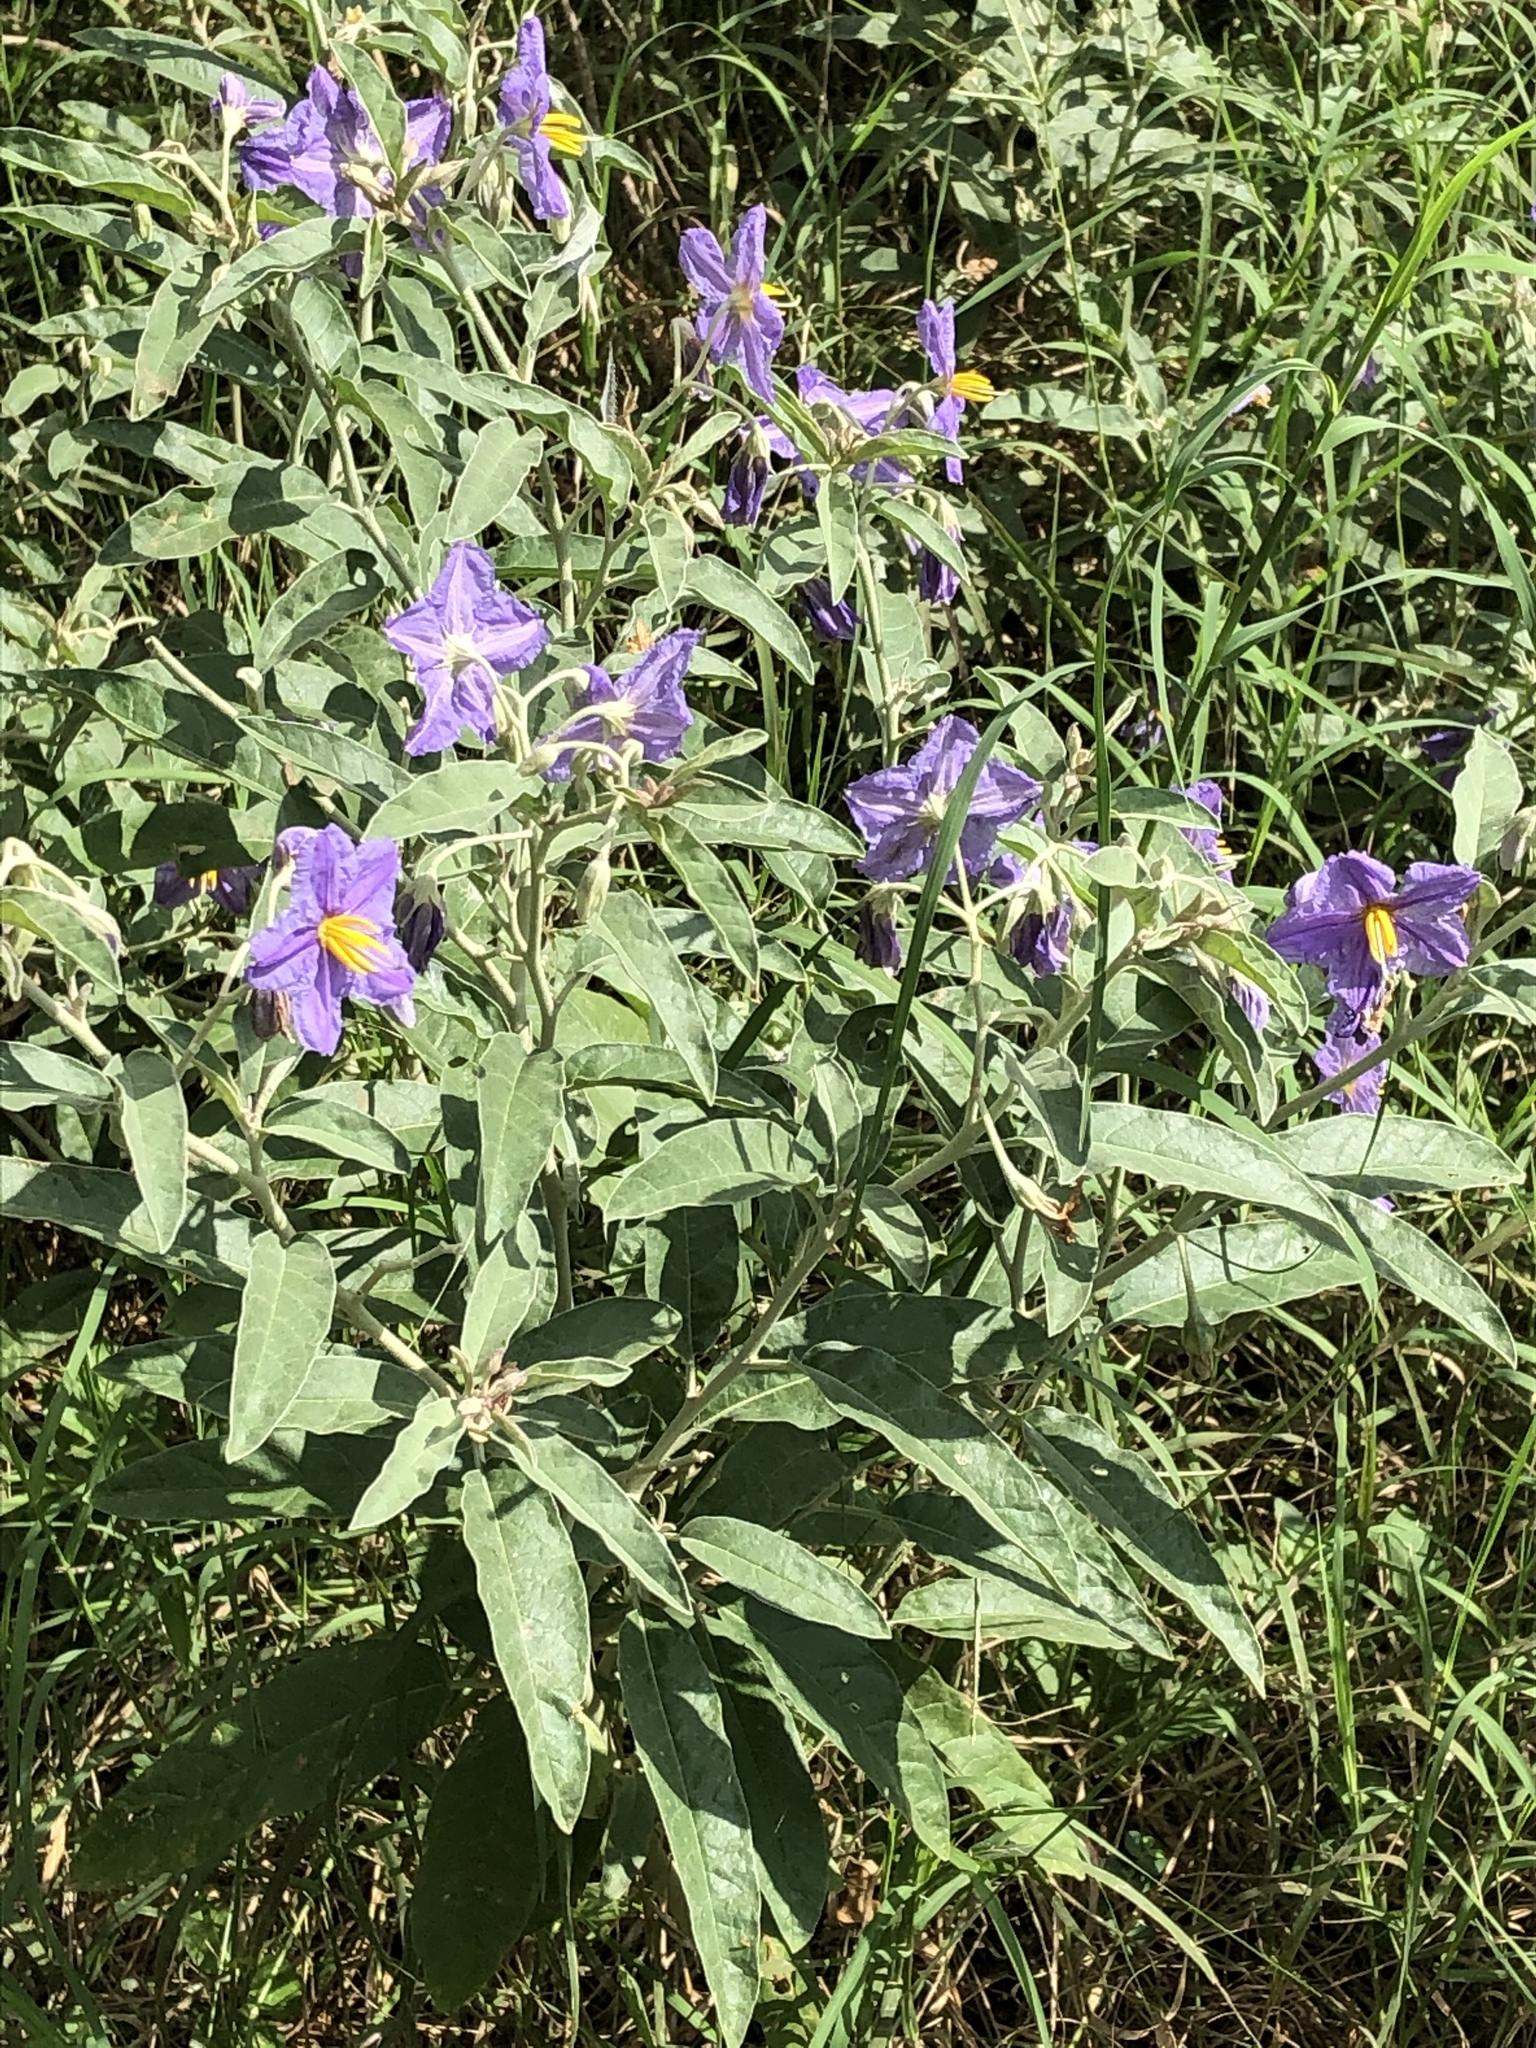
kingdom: Plantae
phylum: Tracheophyta
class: Magnoliopsida
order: Solanales
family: Solanaceae
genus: Solanum
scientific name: Solanum elaeagnifolium
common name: Silverleaf nightshade
